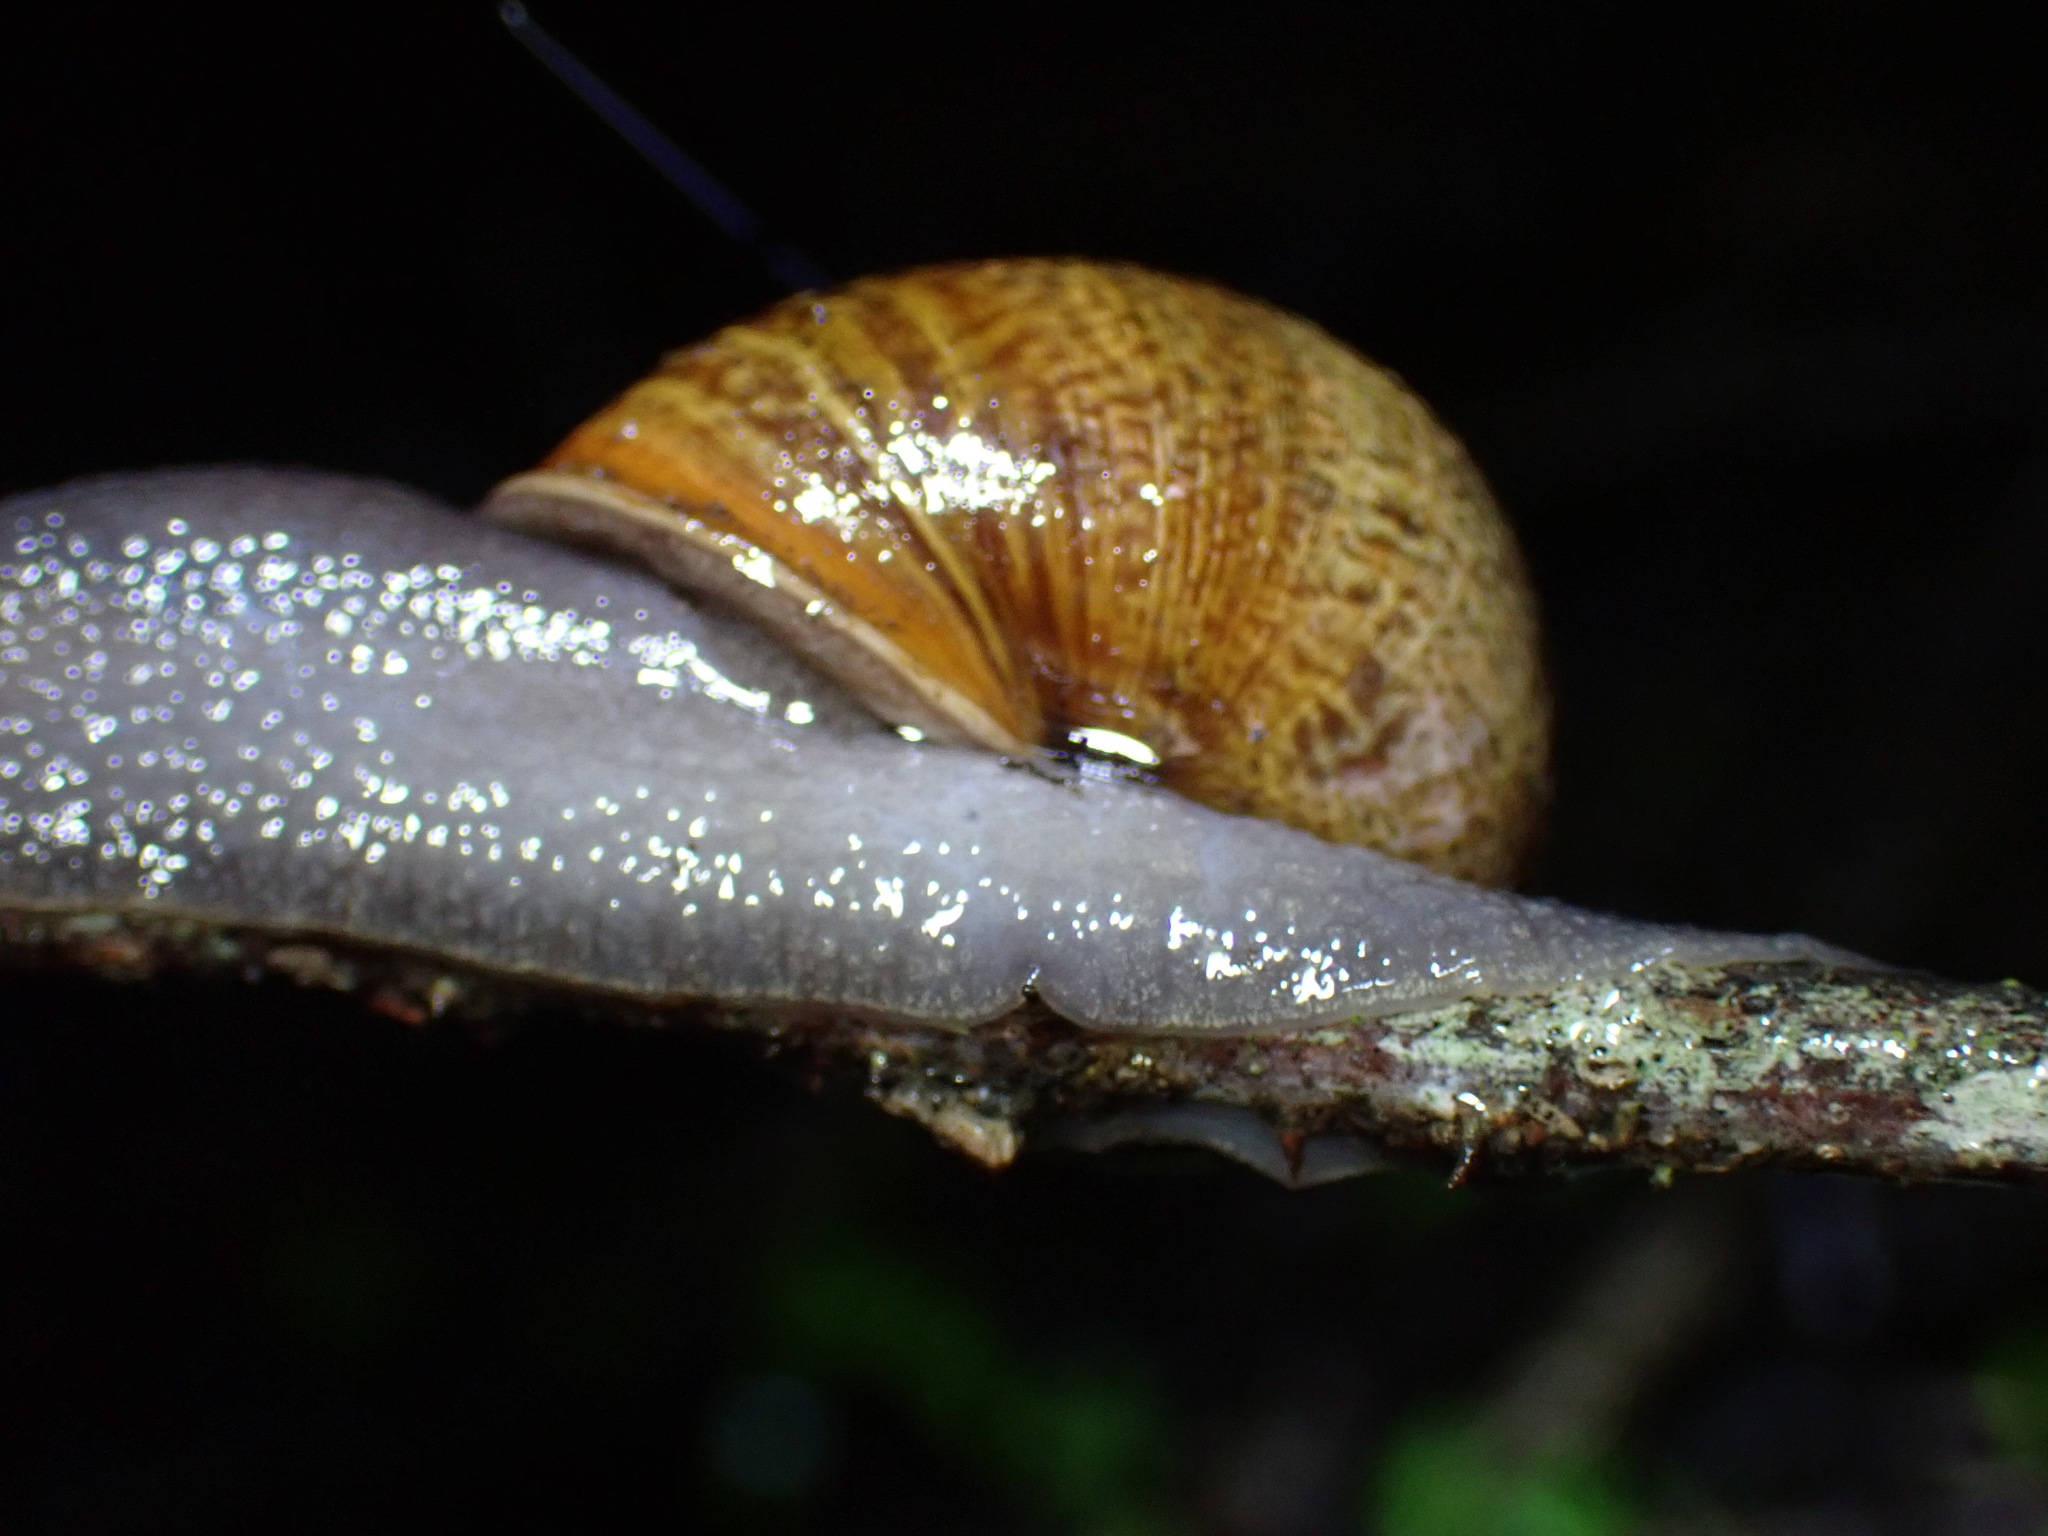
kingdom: Animalia
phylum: Mollusca
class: Gastropoda
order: Stylommatophora
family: Xanthonychidae
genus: Helminthoglypta
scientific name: Helminthoglypta nickliniana
